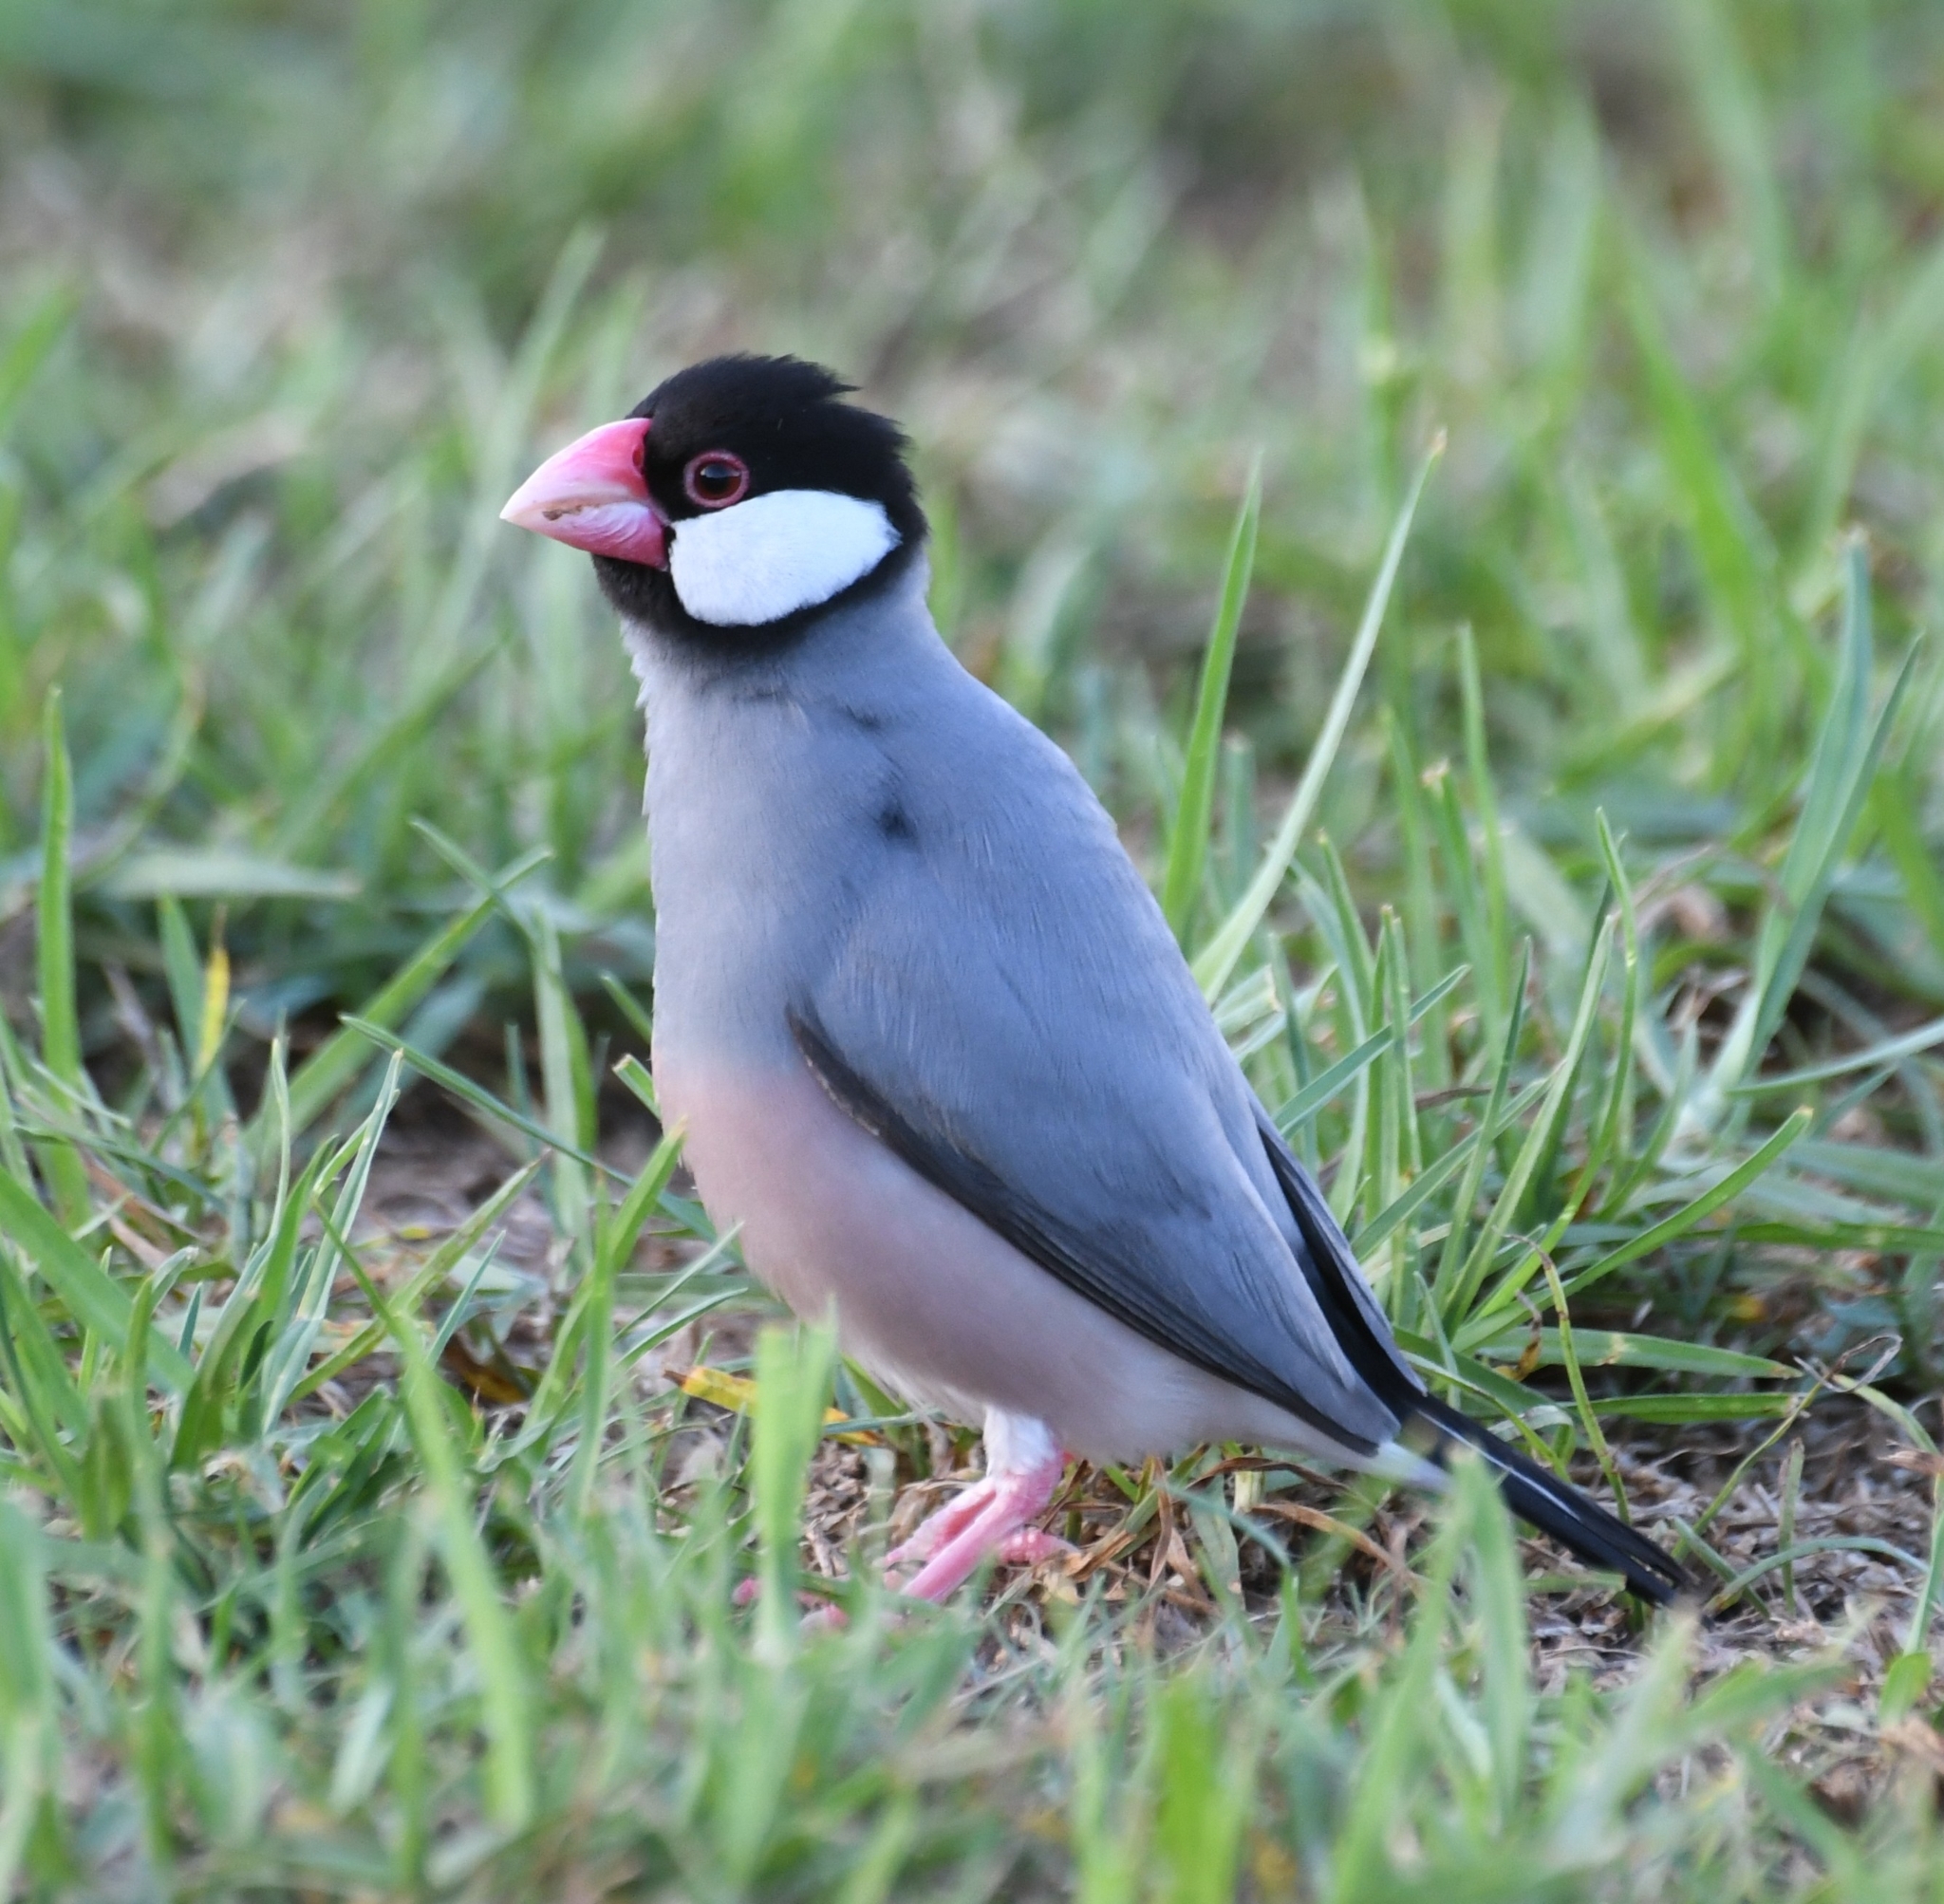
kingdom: Animalia
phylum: Chordata
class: Aves
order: Passeriformes
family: Estrildidae
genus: Lonchura
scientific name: Lonchura oryzivora
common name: Java sparrow
